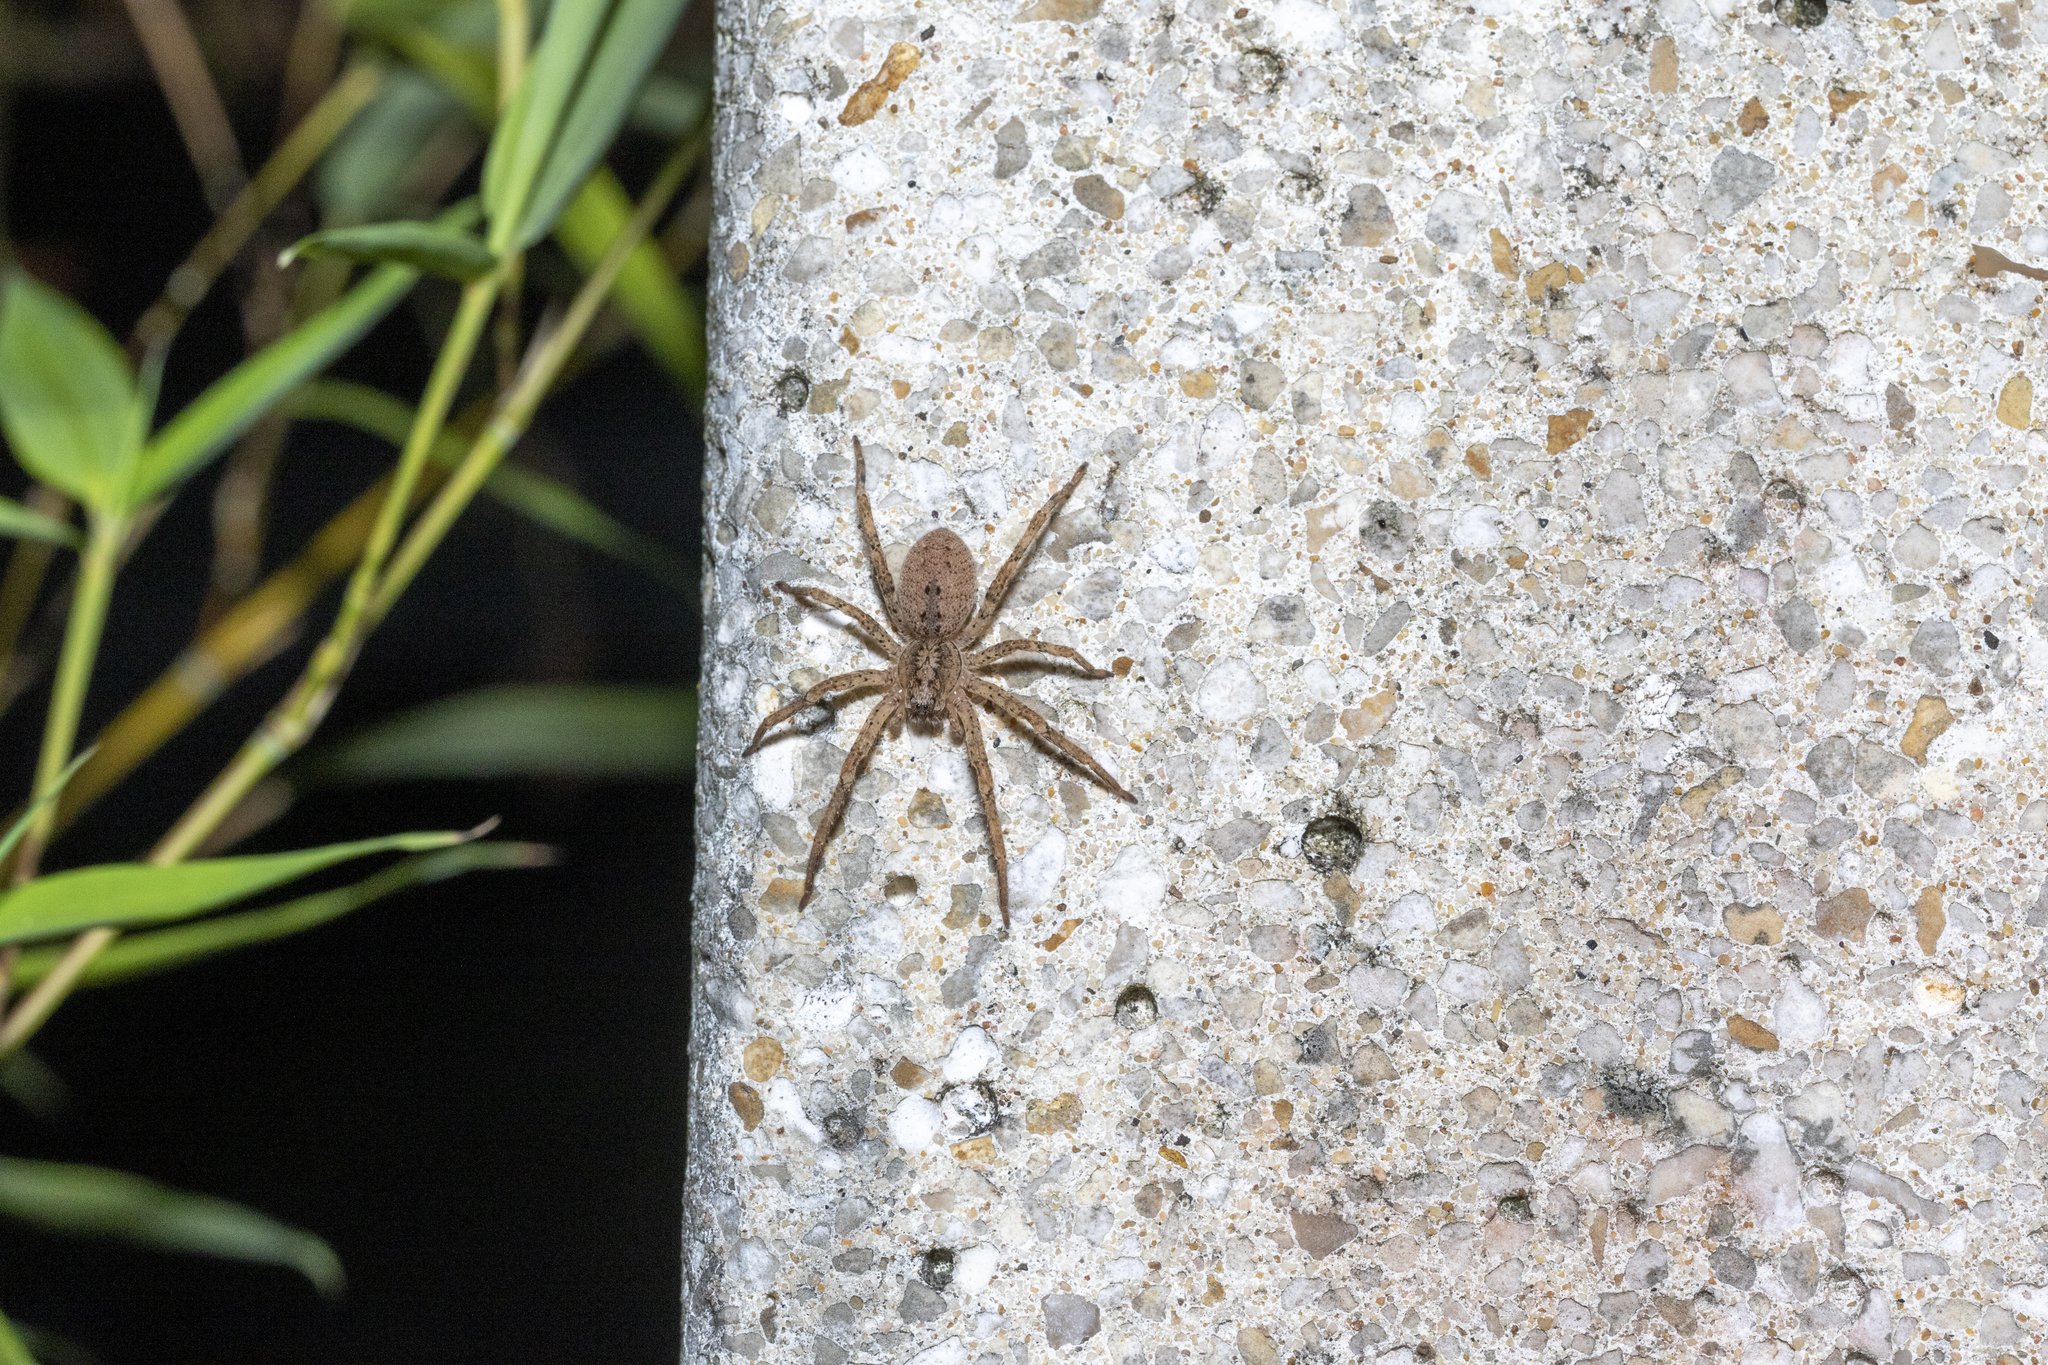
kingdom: Animalia
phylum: Arthropoda
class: Arachnida
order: Araneae
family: Zoropsidae
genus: Zoropsis
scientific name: Zoropsis spinimana
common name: Zoropsid spider
